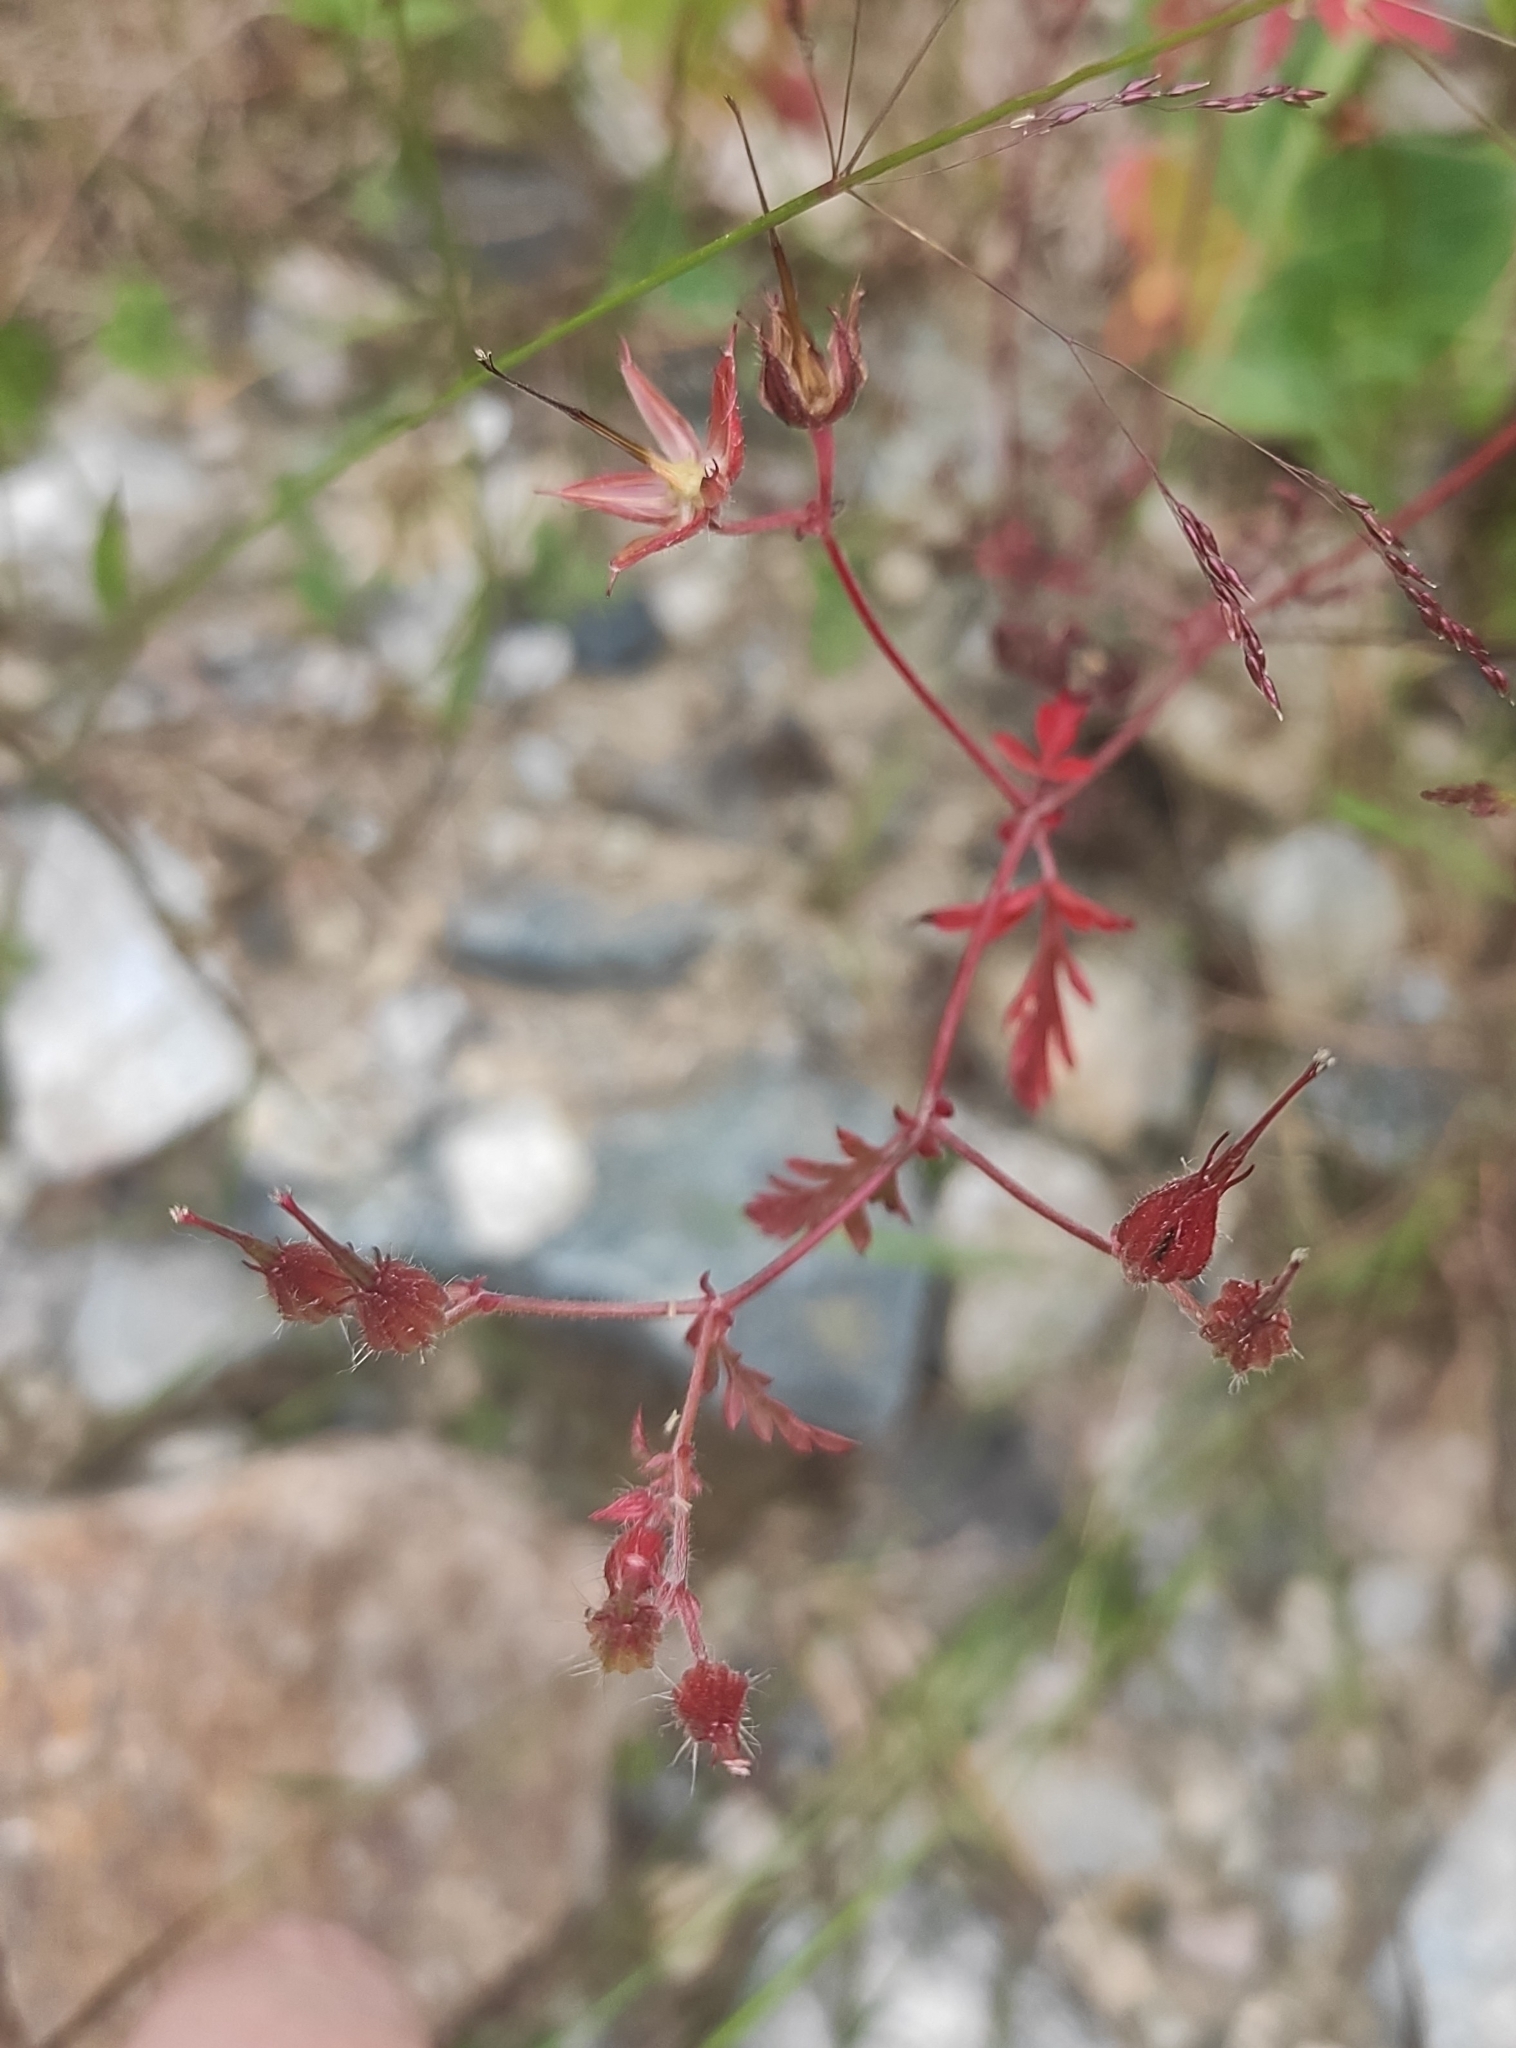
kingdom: Plantae
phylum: Tracheophyta
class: Magnoliopsida
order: Geraniales
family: Geraniaceae
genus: Geranium
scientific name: Geranium purpureum
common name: Little-robin
